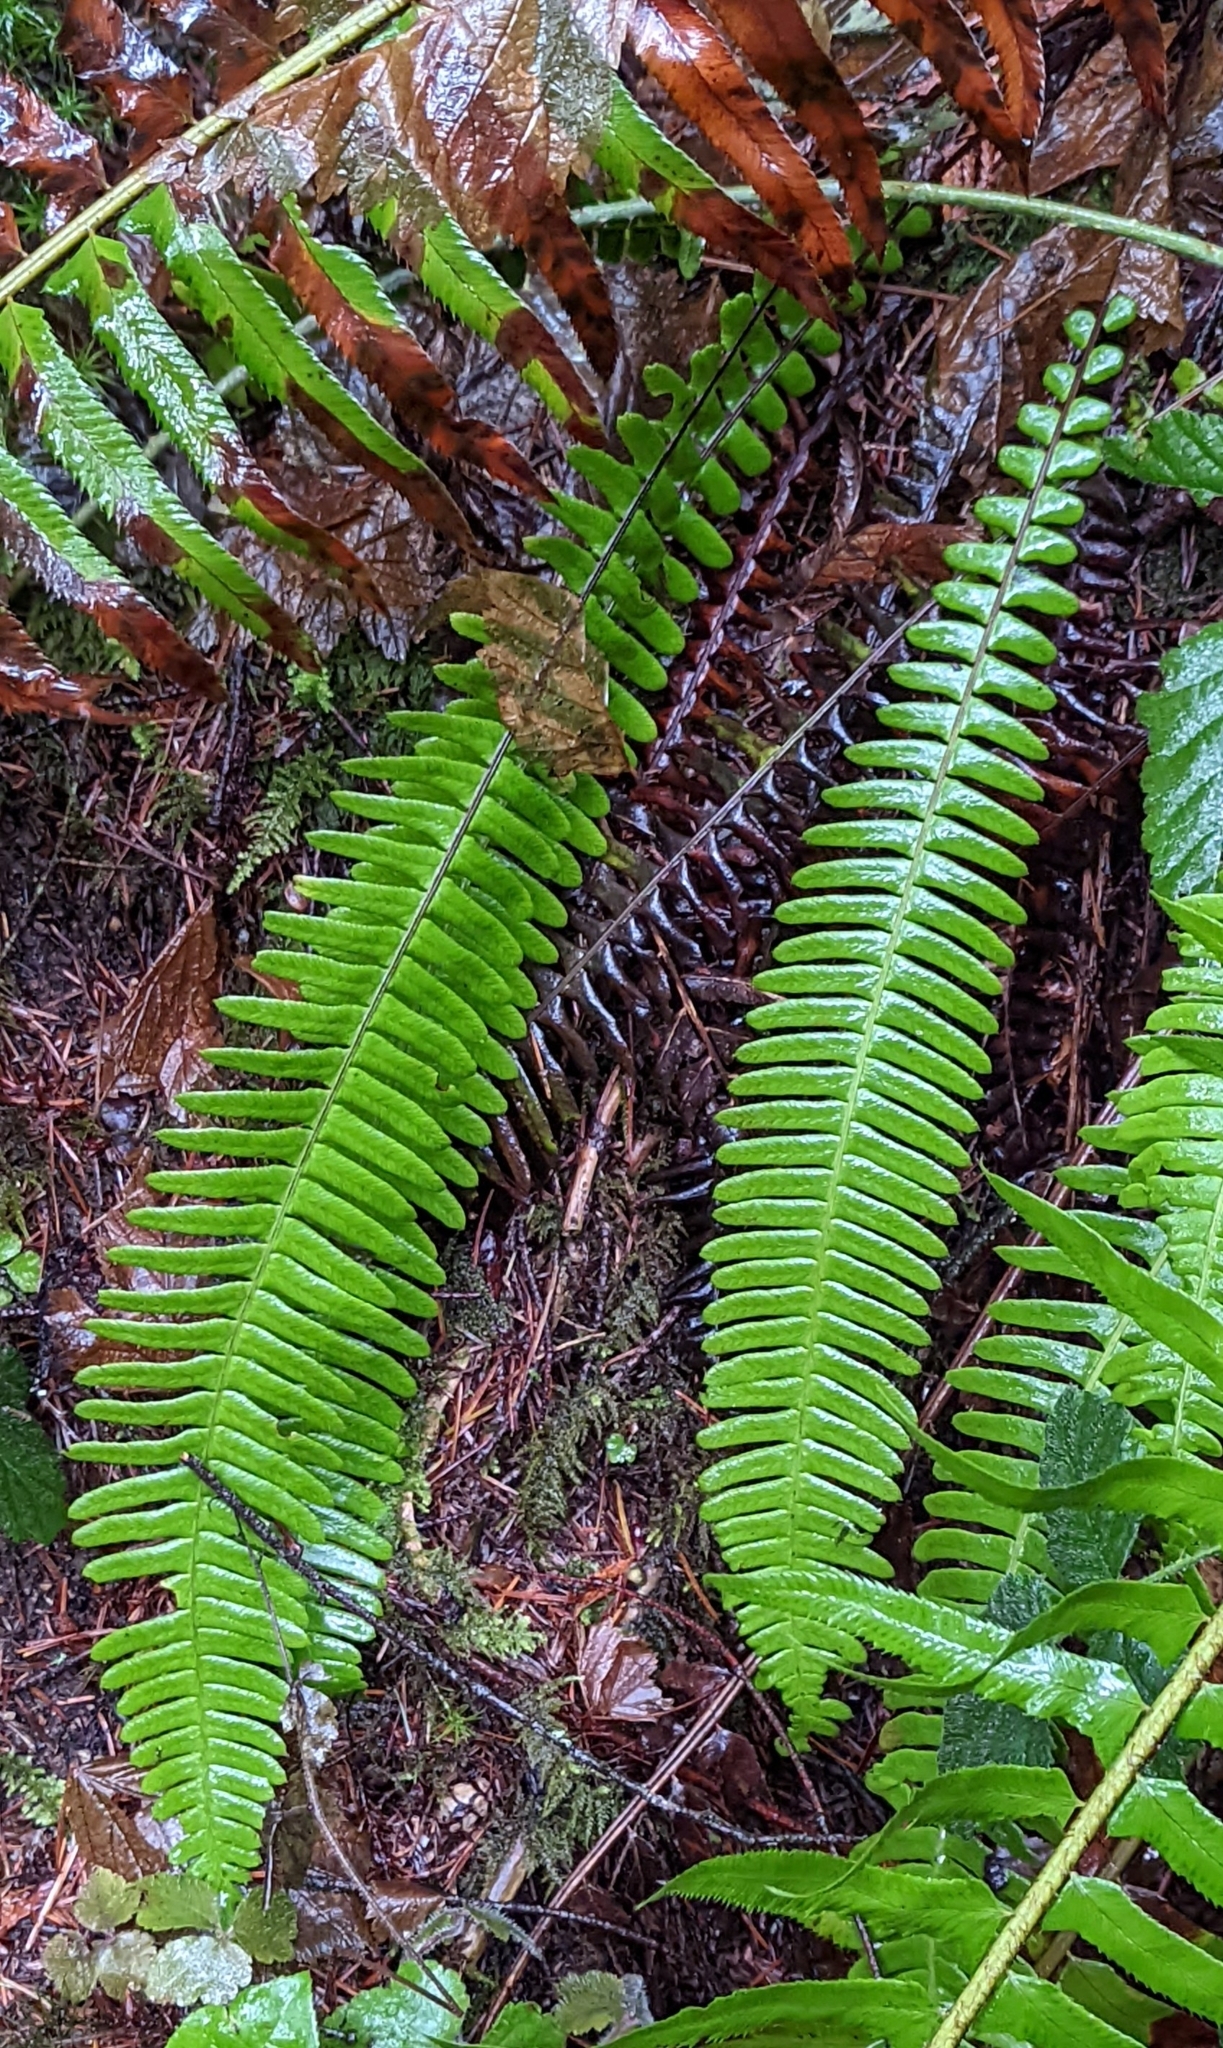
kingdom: Plantae
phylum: Tracheophyta
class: Polypodiopsida
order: Polypodiales
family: Blechnaceae
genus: Struthiopteris
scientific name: Struthiopteris spicant
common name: Deer fern
